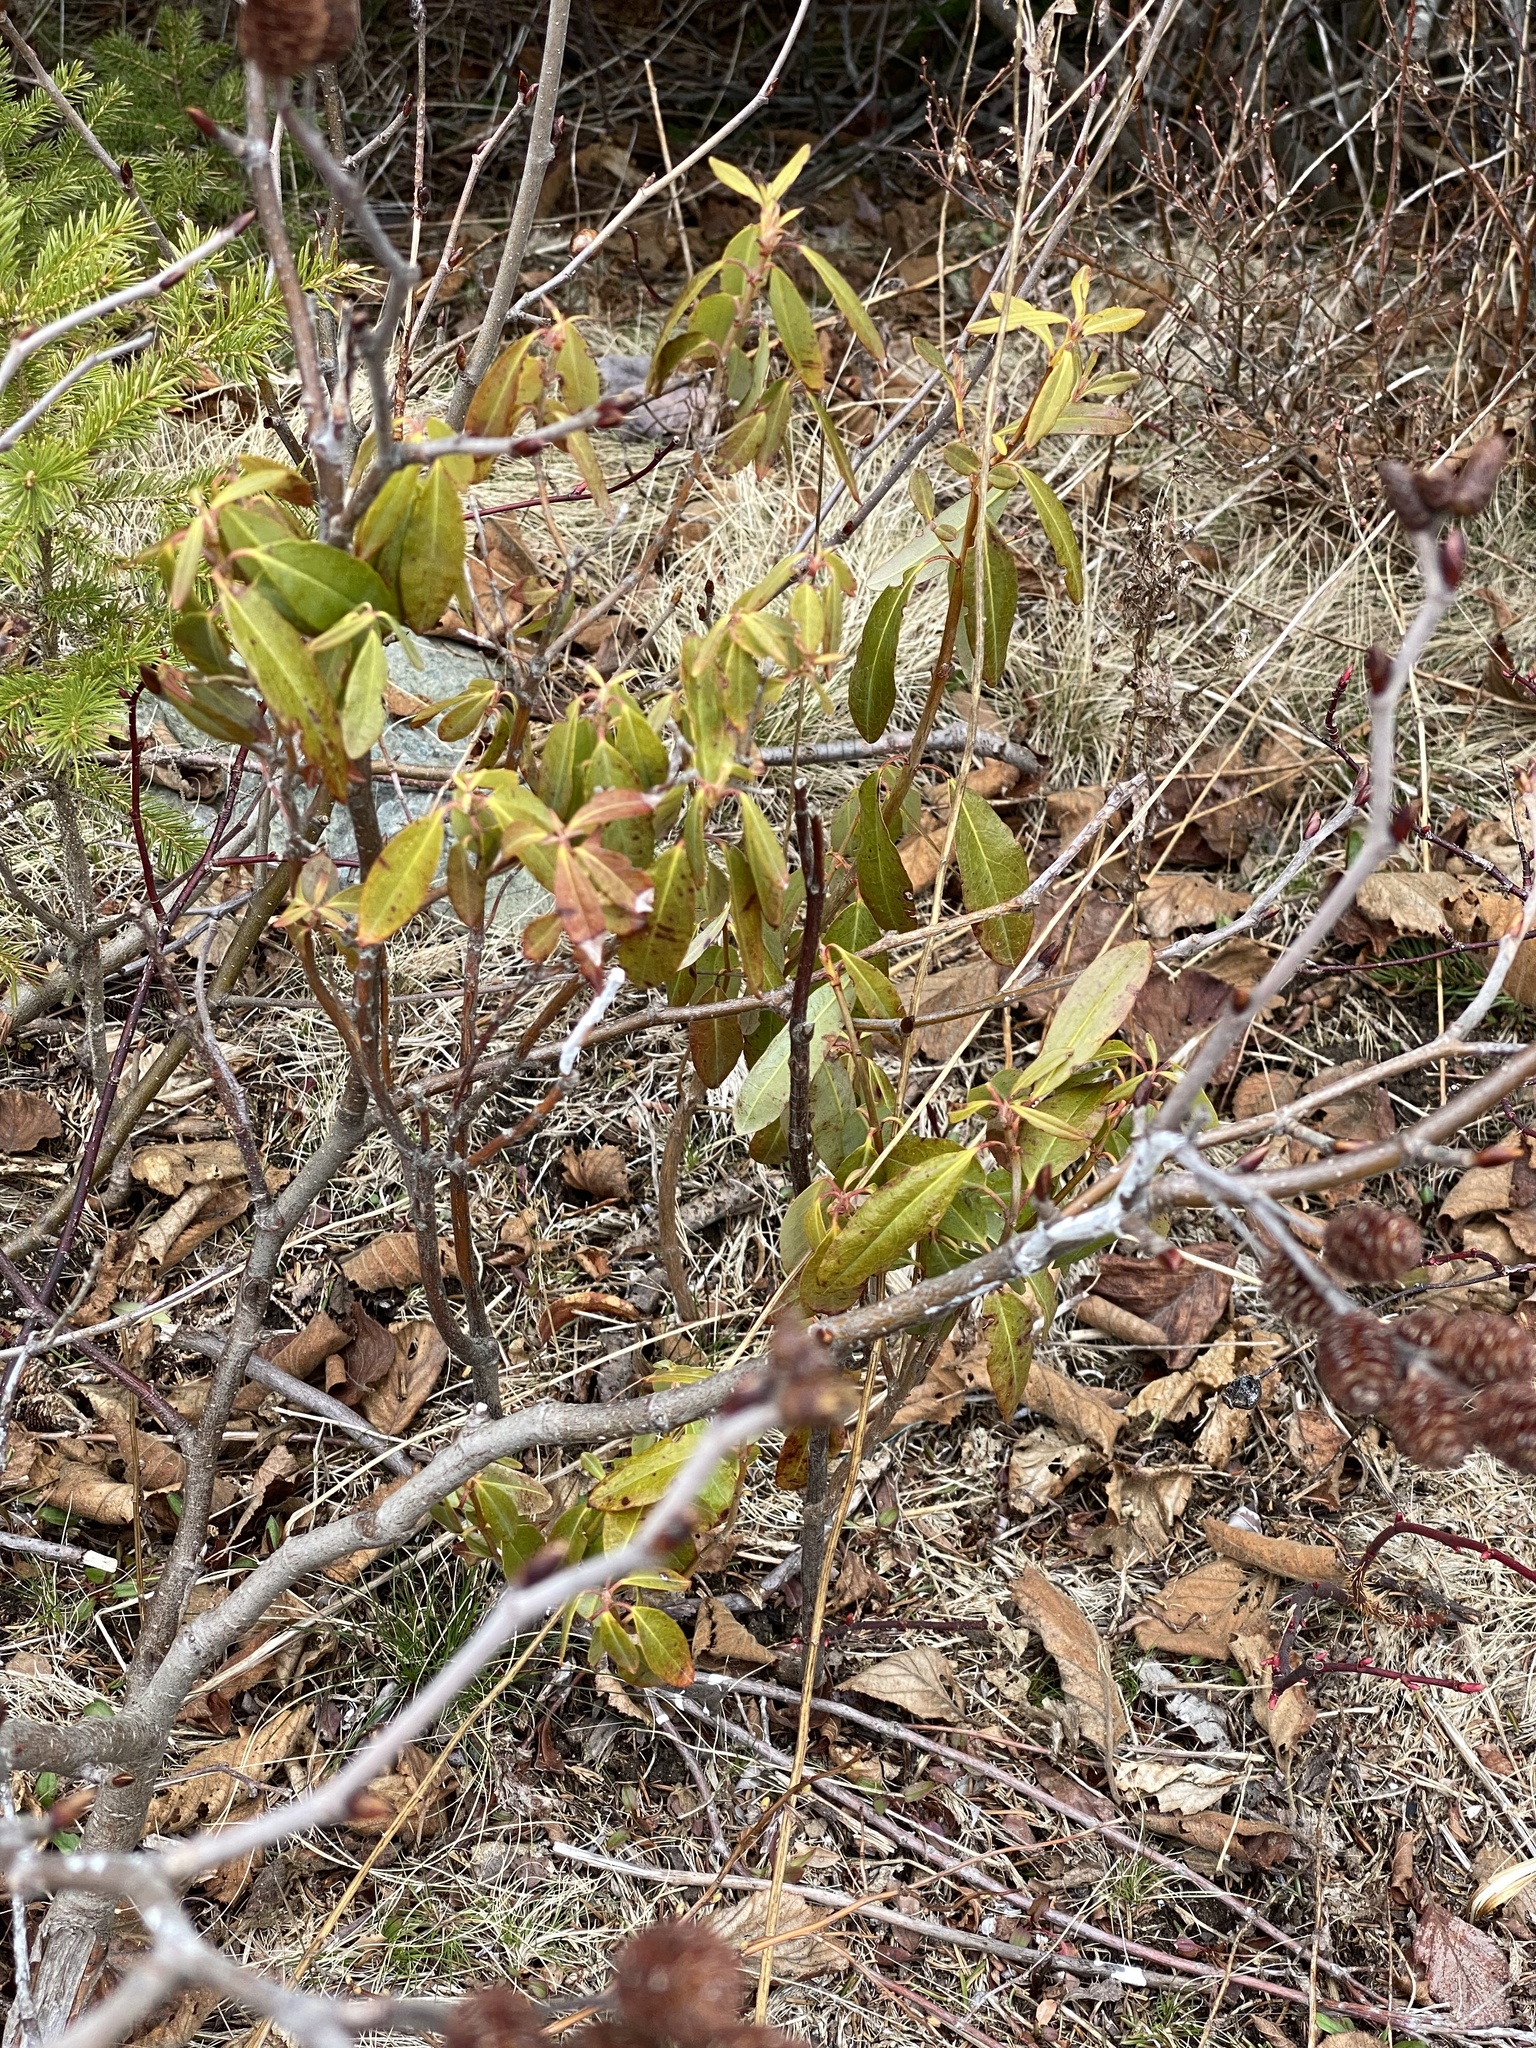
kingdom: Plantae
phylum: Tracheophyta
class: Magnoliopsida
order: Ericales
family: Ericaceae
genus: Kalmia
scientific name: Kalmia angustifolia
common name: Sheep-laurel
